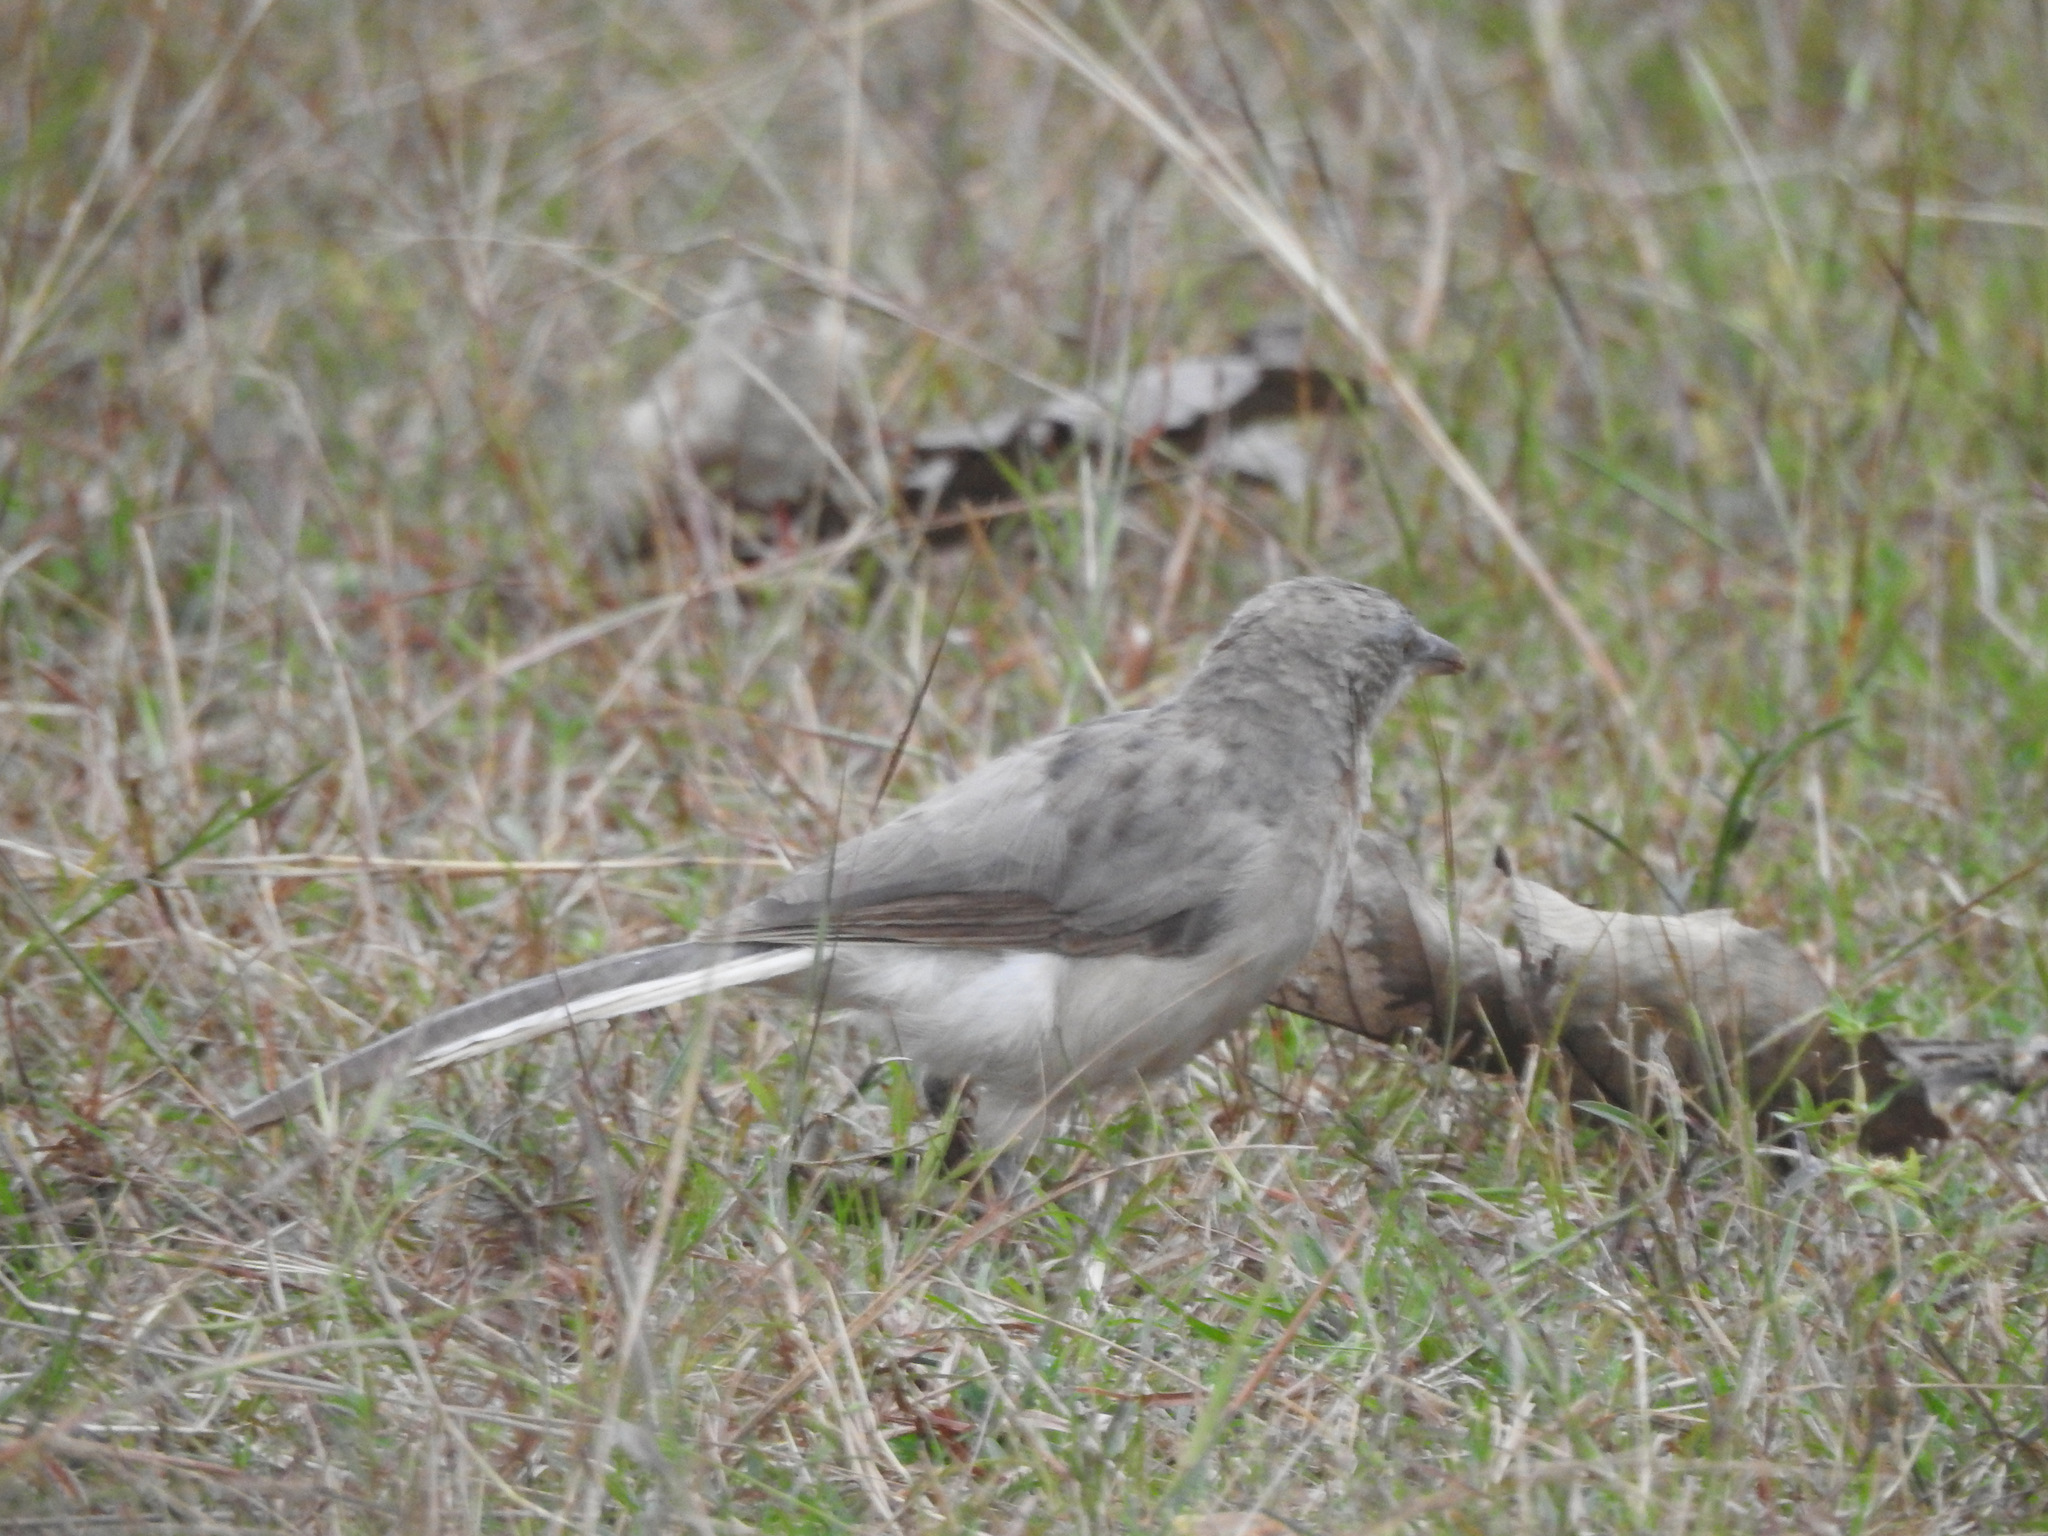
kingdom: Animalia
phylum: Chordata
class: Aves
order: Passeriformes
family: Leiothrichidae
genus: Turdoides
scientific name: Turdoides malcolmi
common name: Large grey babbler
